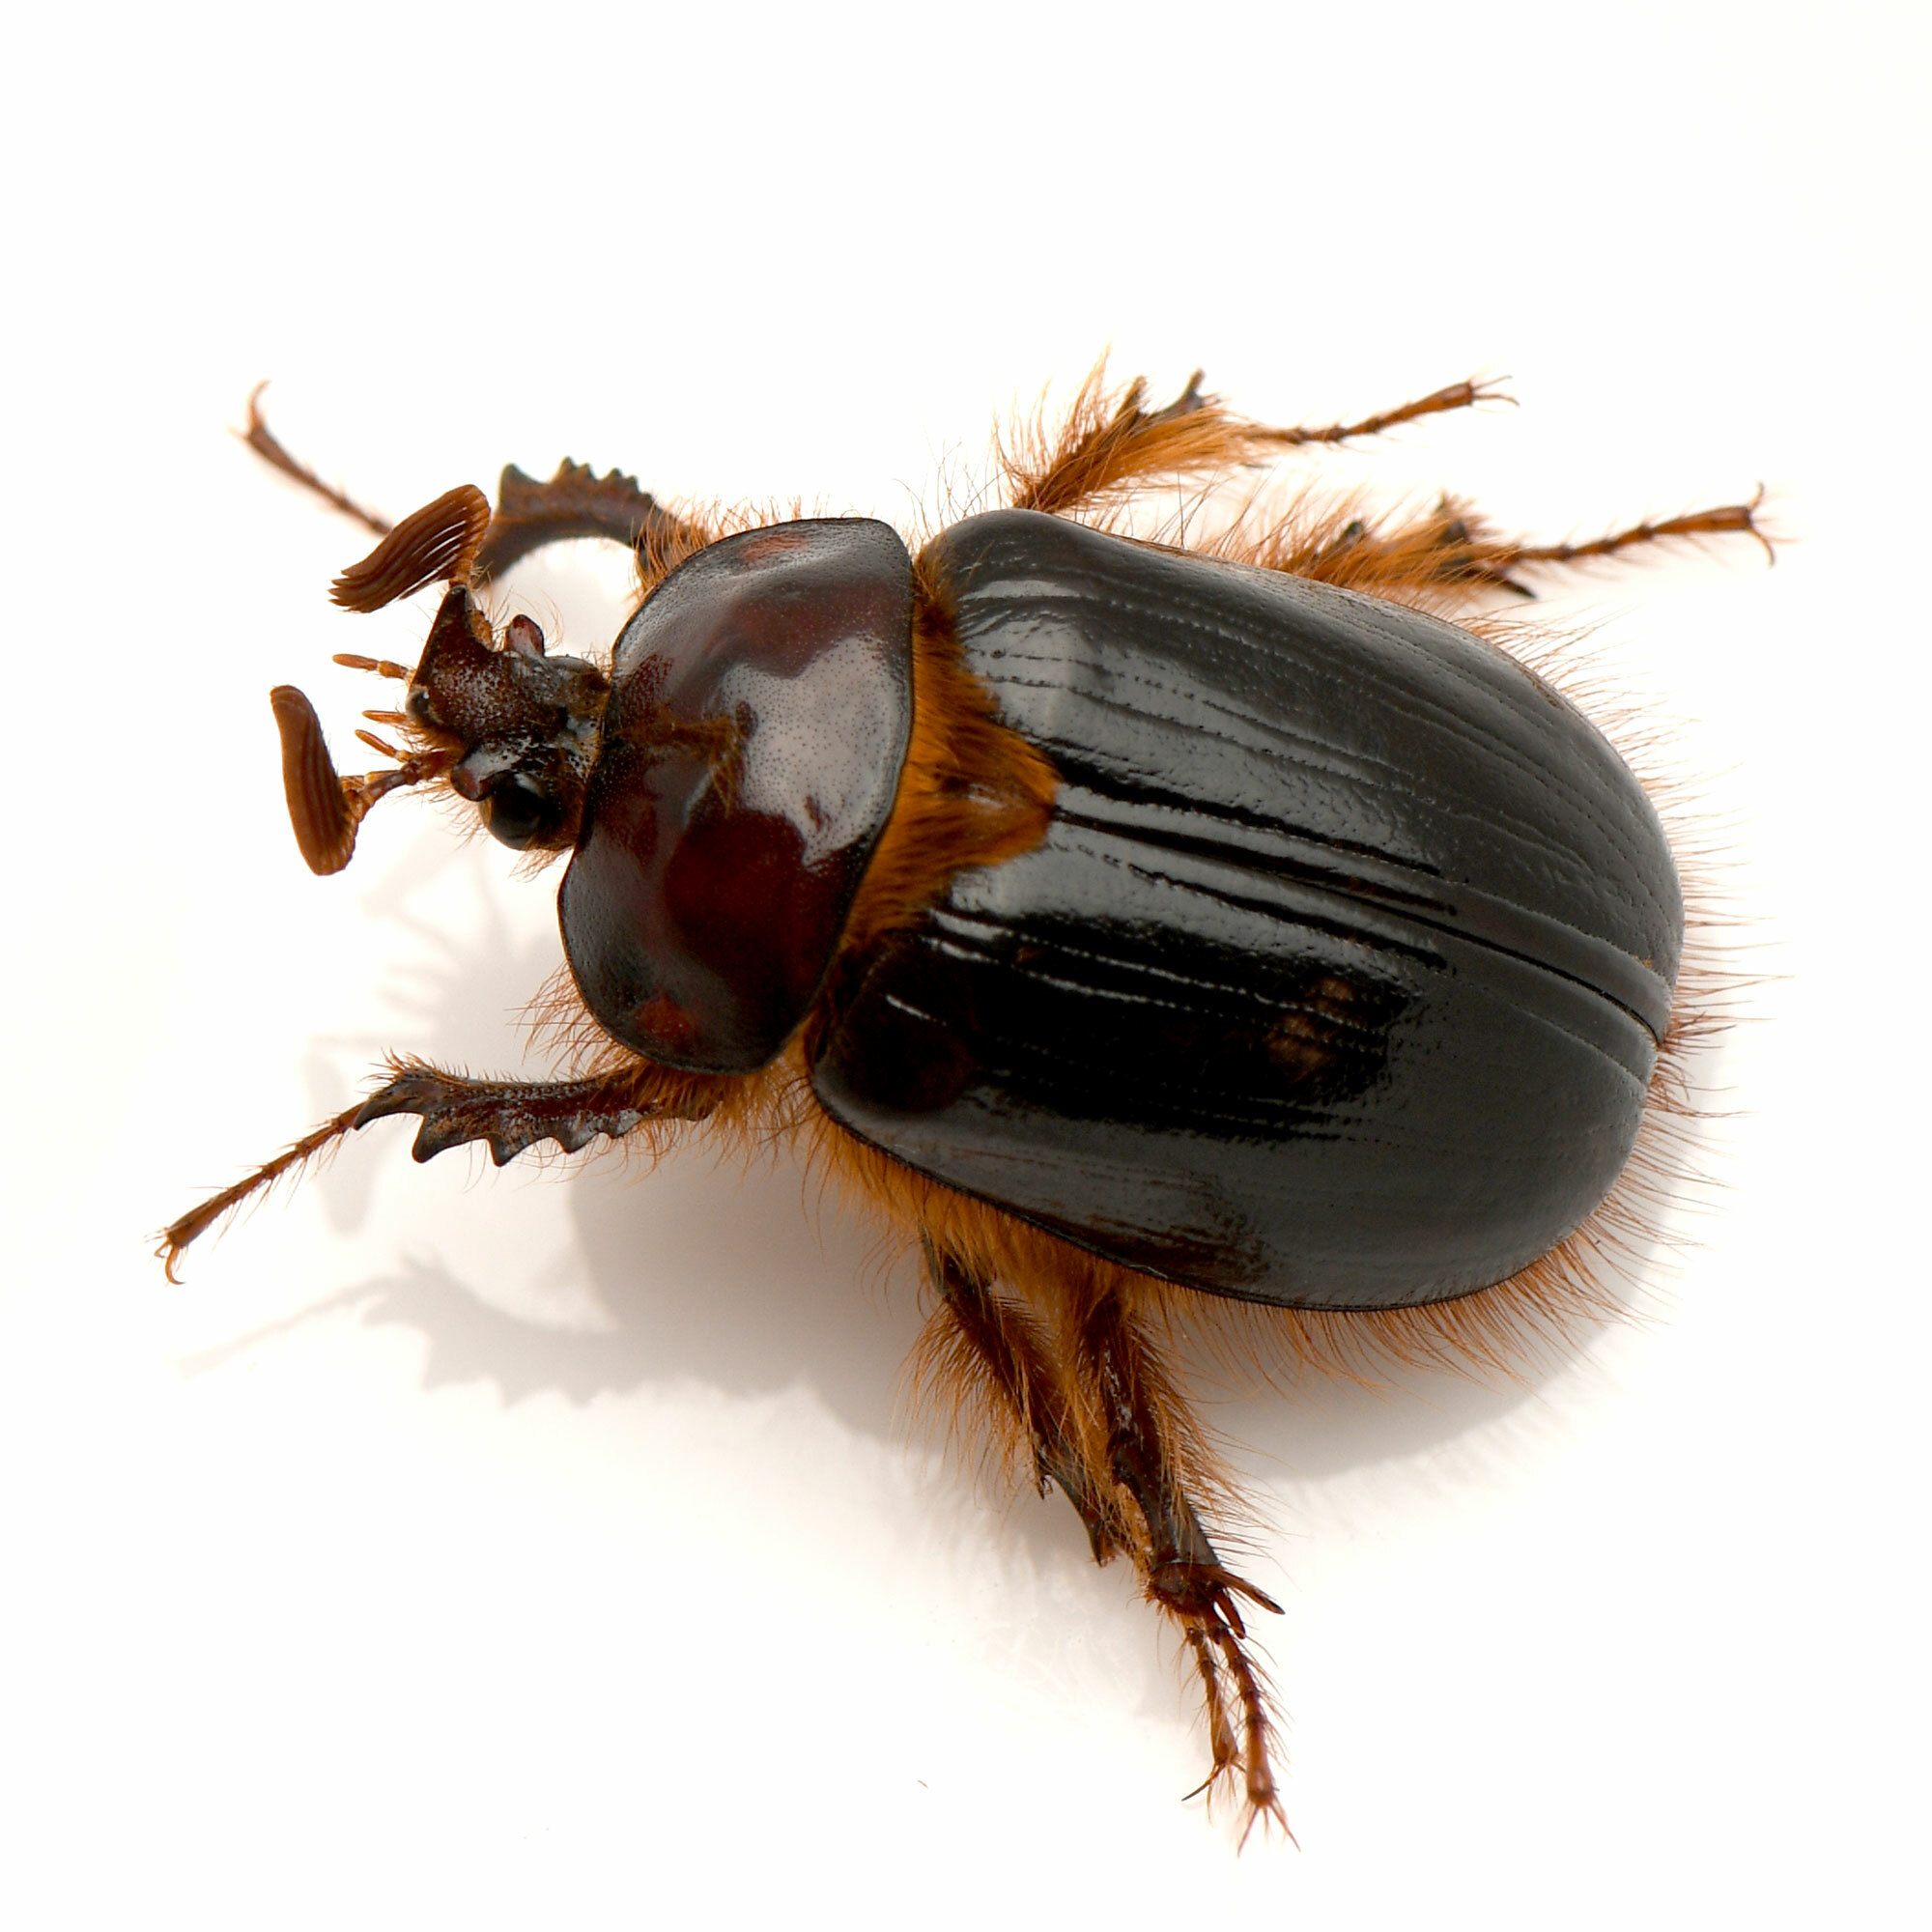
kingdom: Animalia
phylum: Arthropoda
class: Insecta
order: Coleoptera
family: Pleocomidae
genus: Pleocoma
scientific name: Pleocoma minor
